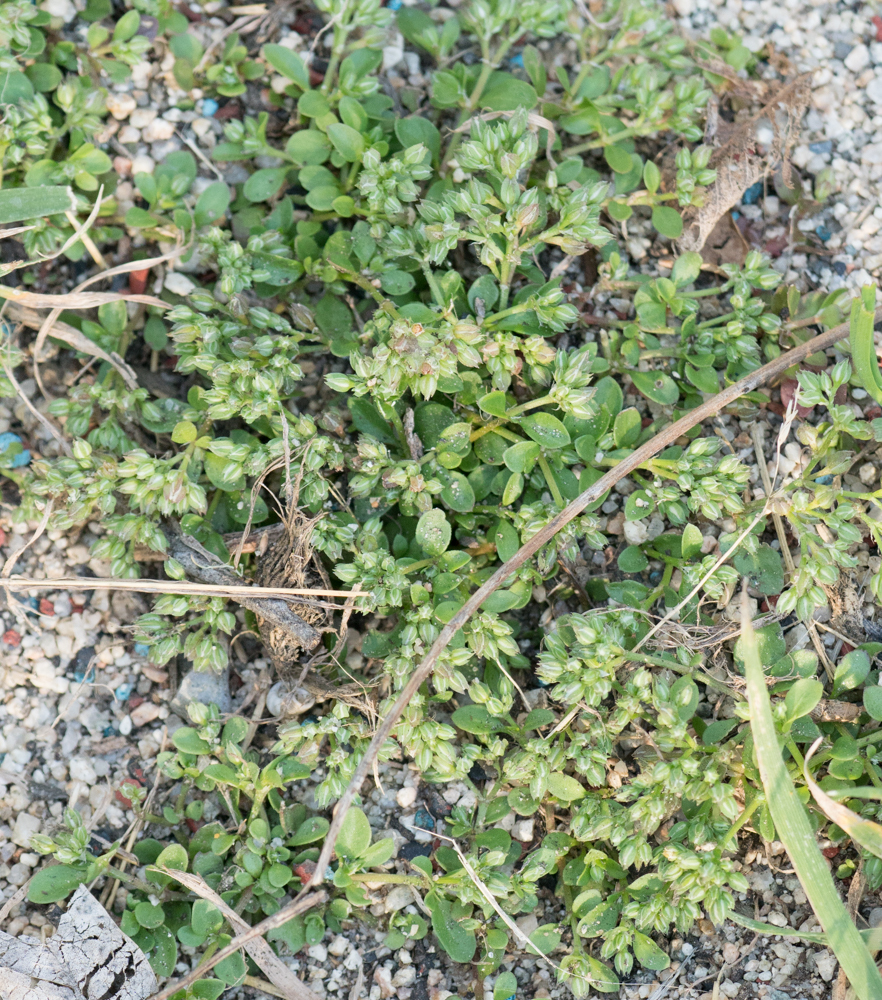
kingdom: Plantae
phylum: Tracheophyta
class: Magnoliopsida
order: Caryophyllales
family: Caryophyllaceae
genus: Polycarpon
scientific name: Polycarpon tetraphyllum
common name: Four-leaved all-seed
